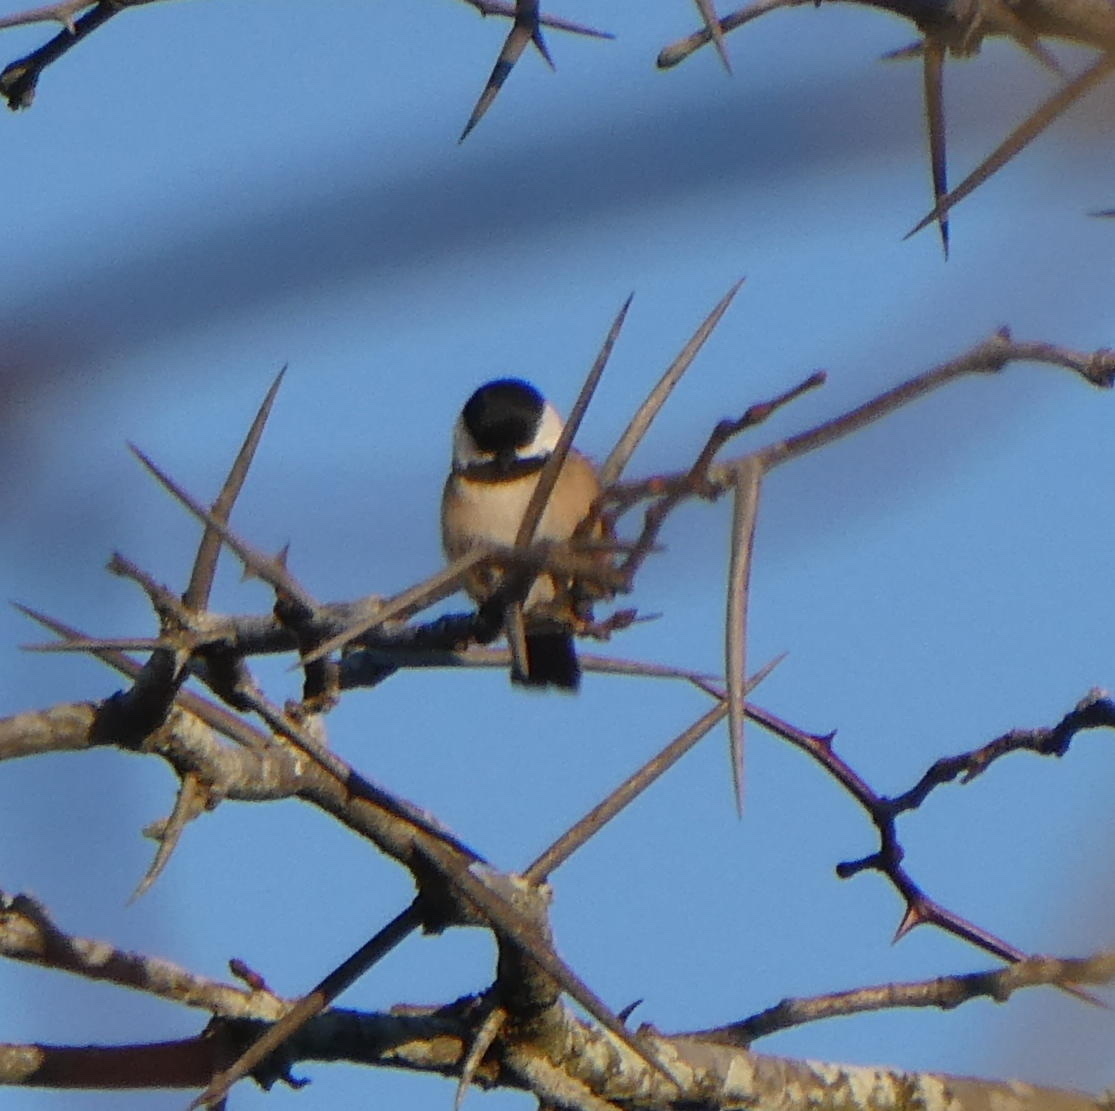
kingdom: Animalia
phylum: Chordata
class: Aves
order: Passeriformes
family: Paridae
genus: Poecile
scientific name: Poecile atricapillus
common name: Black-capped chickadee
